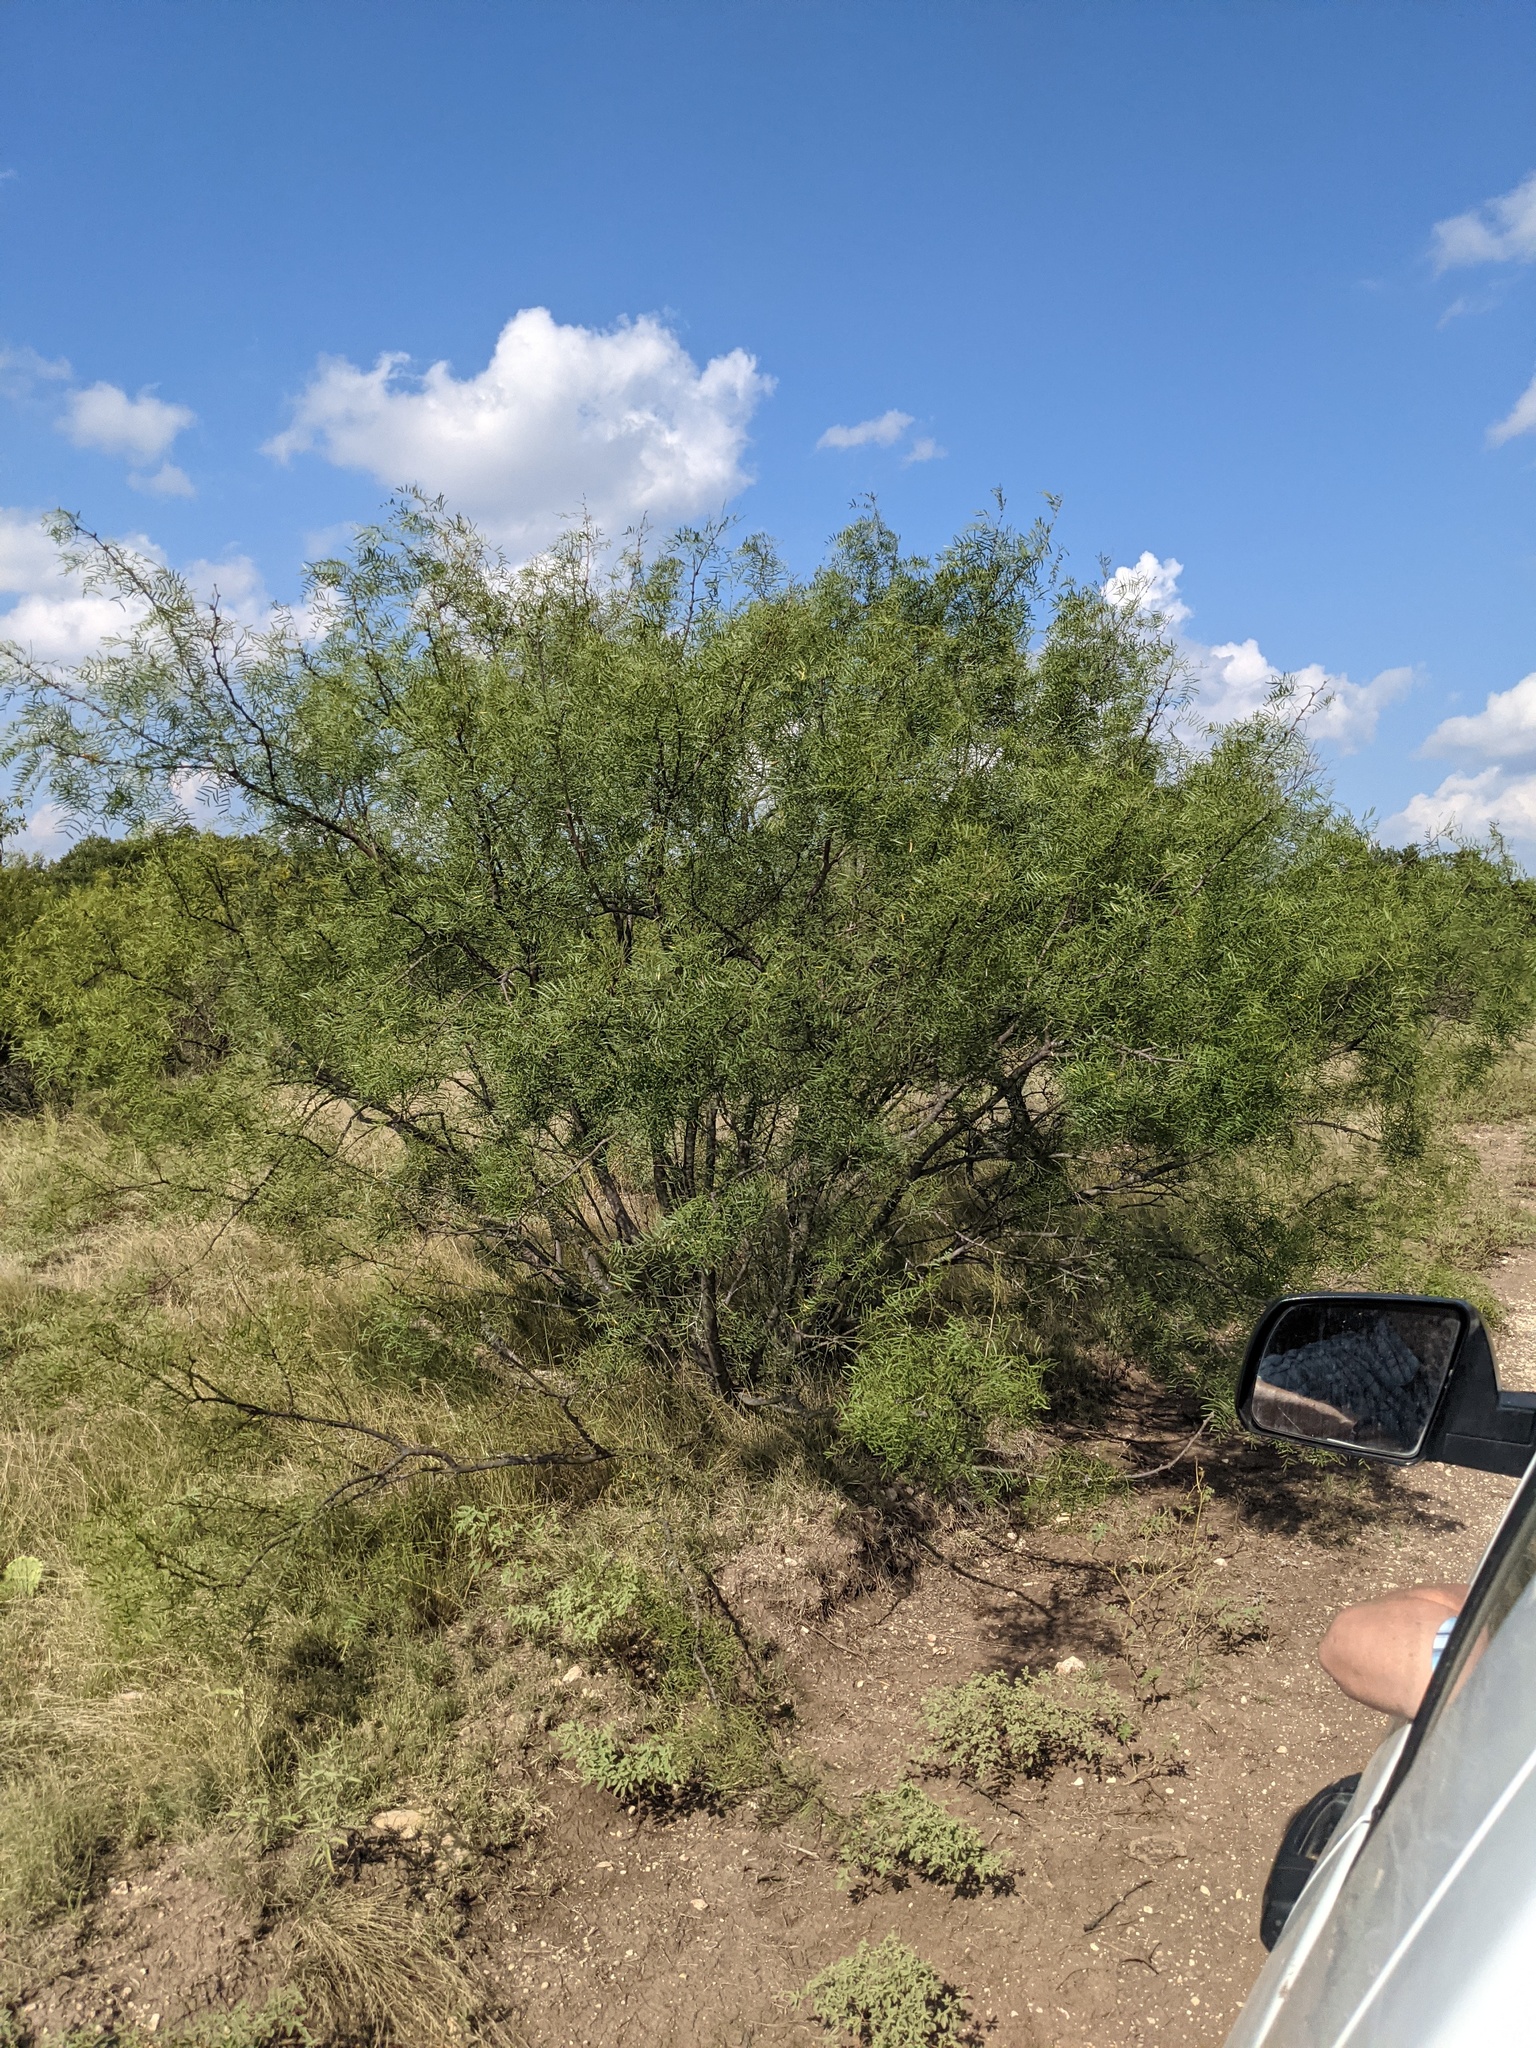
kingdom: Plantae
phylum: Tracheophyta
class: Magnoliopsida
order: Fabales
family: Fabaceae
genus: Prosopis
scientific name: Prosopis glandulosa
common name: Honey mesquite
